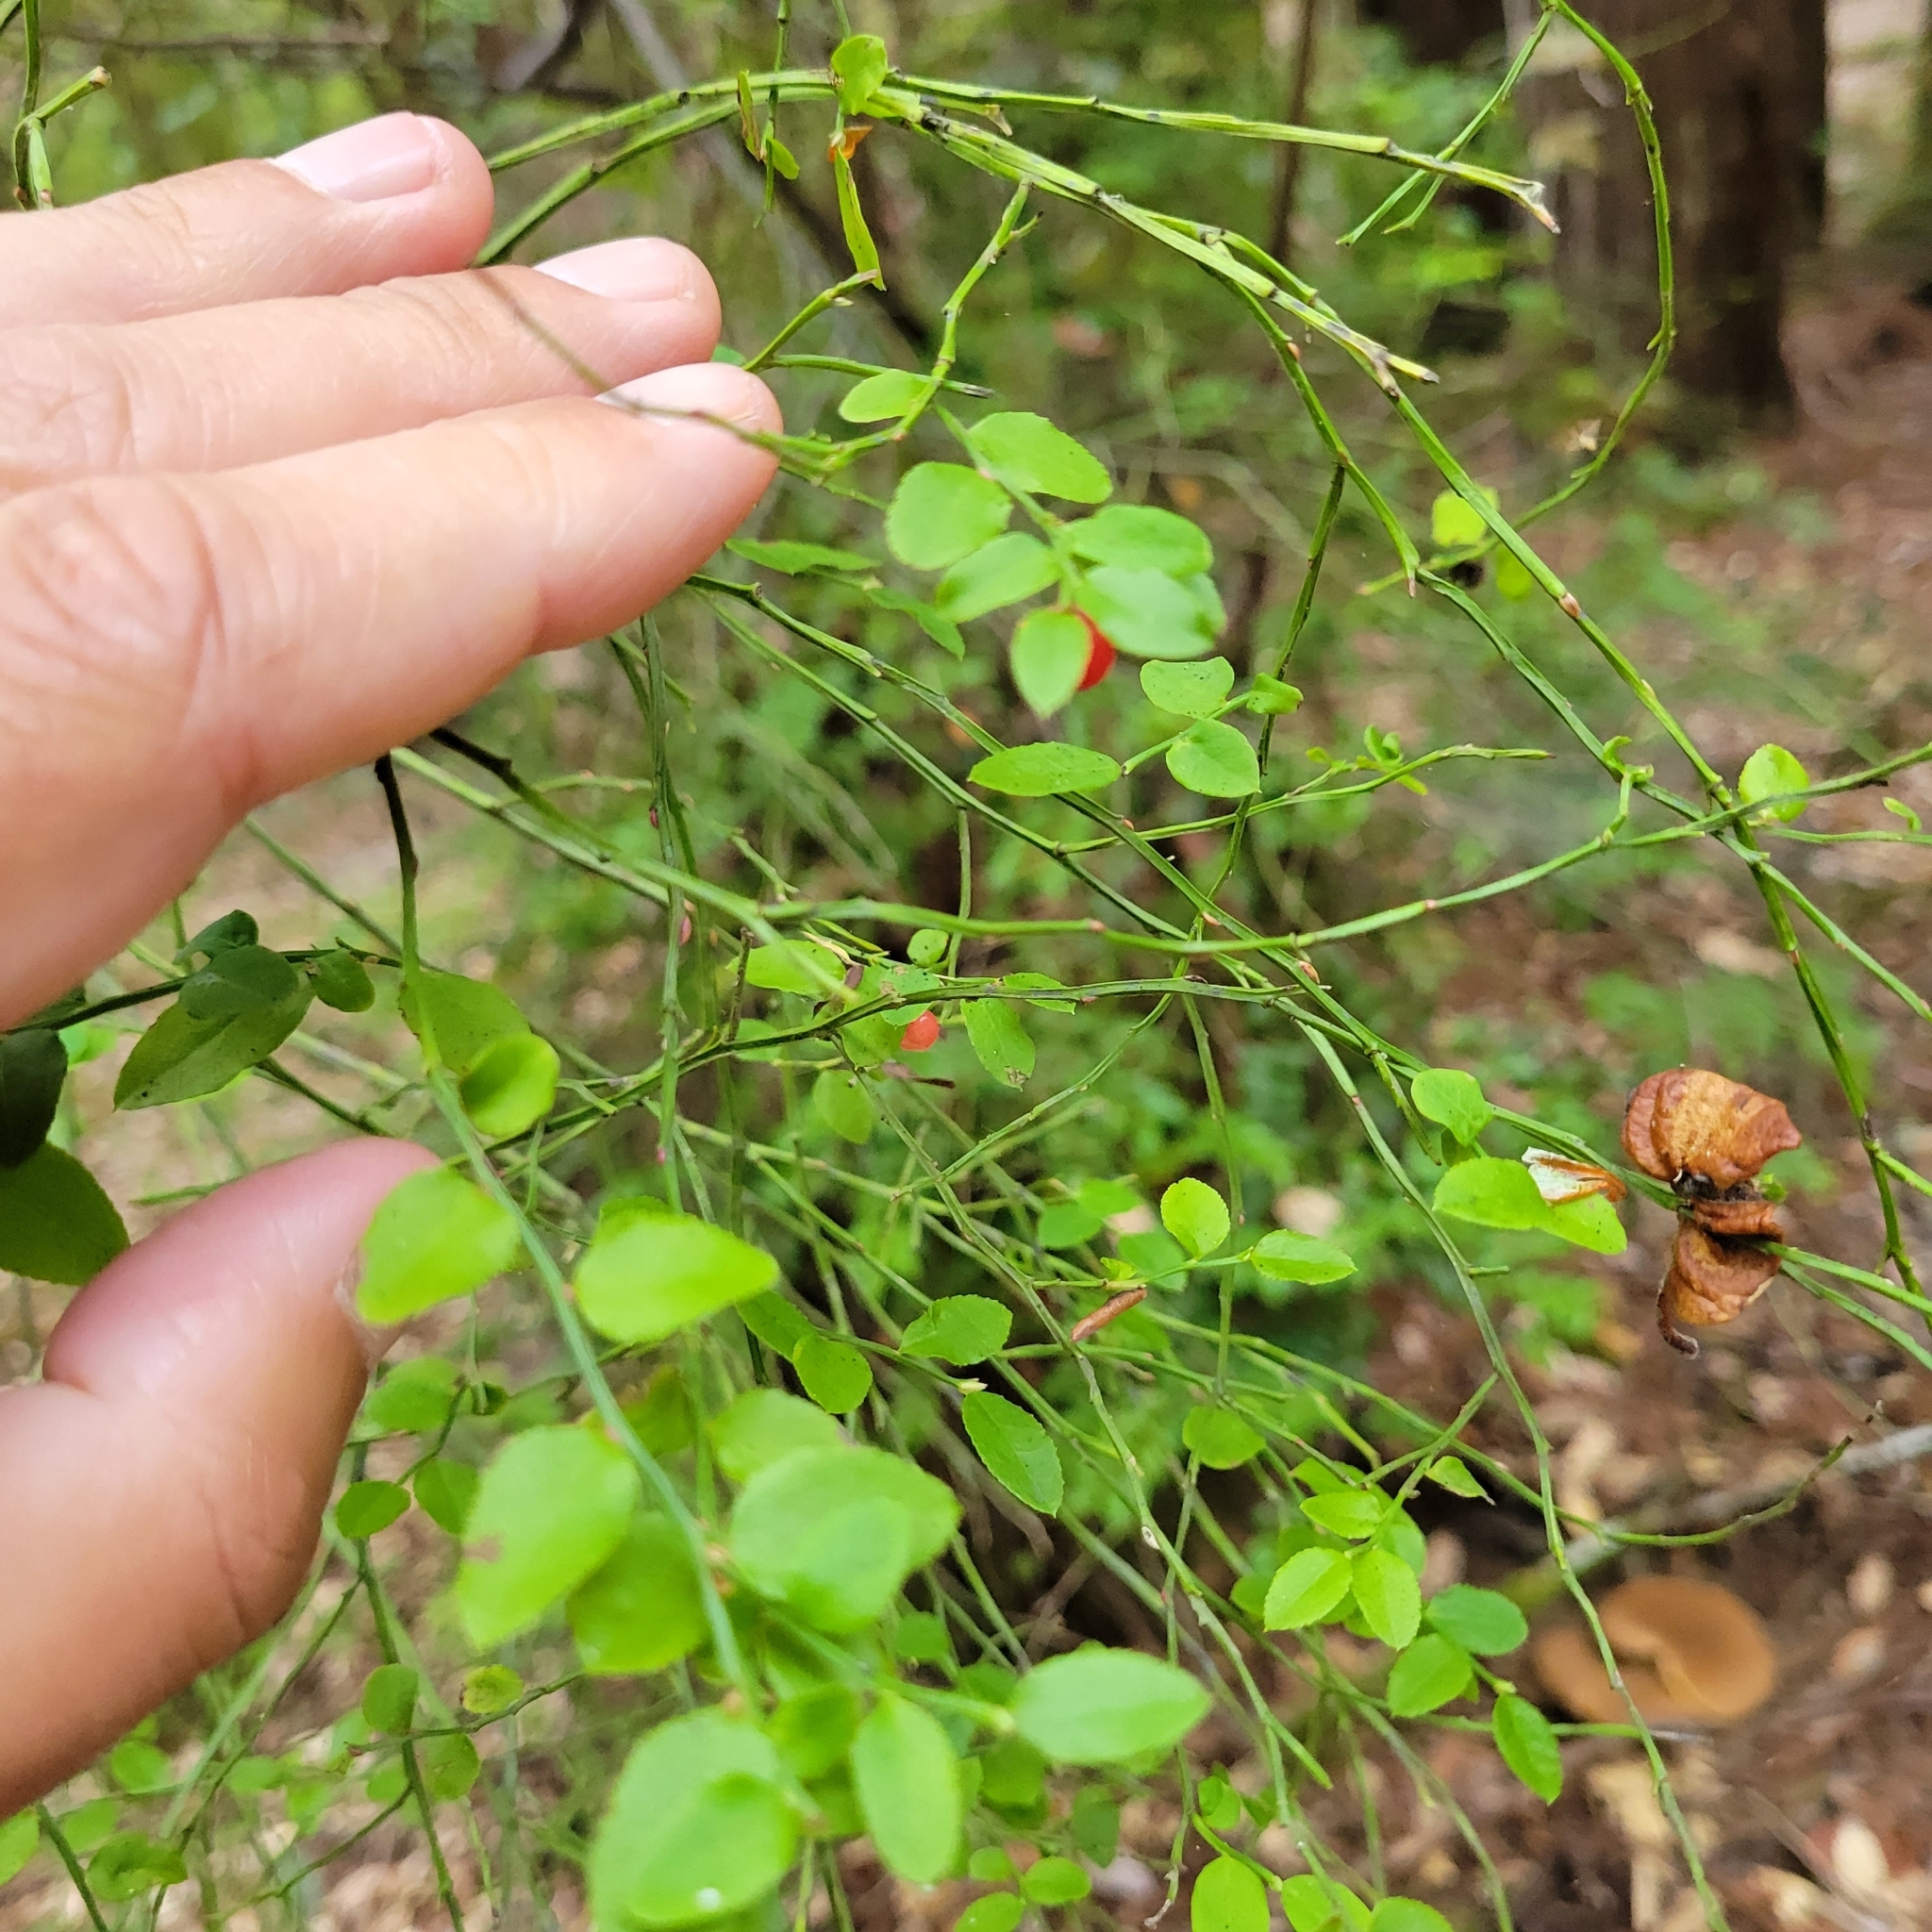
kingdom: Plantae
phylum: Tracheophyta
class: Magnoliopsida
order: Ericales
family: Ericaceae
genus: Vaccinium
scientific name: Vaccinium parvifolium
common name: Red-huckleberry
